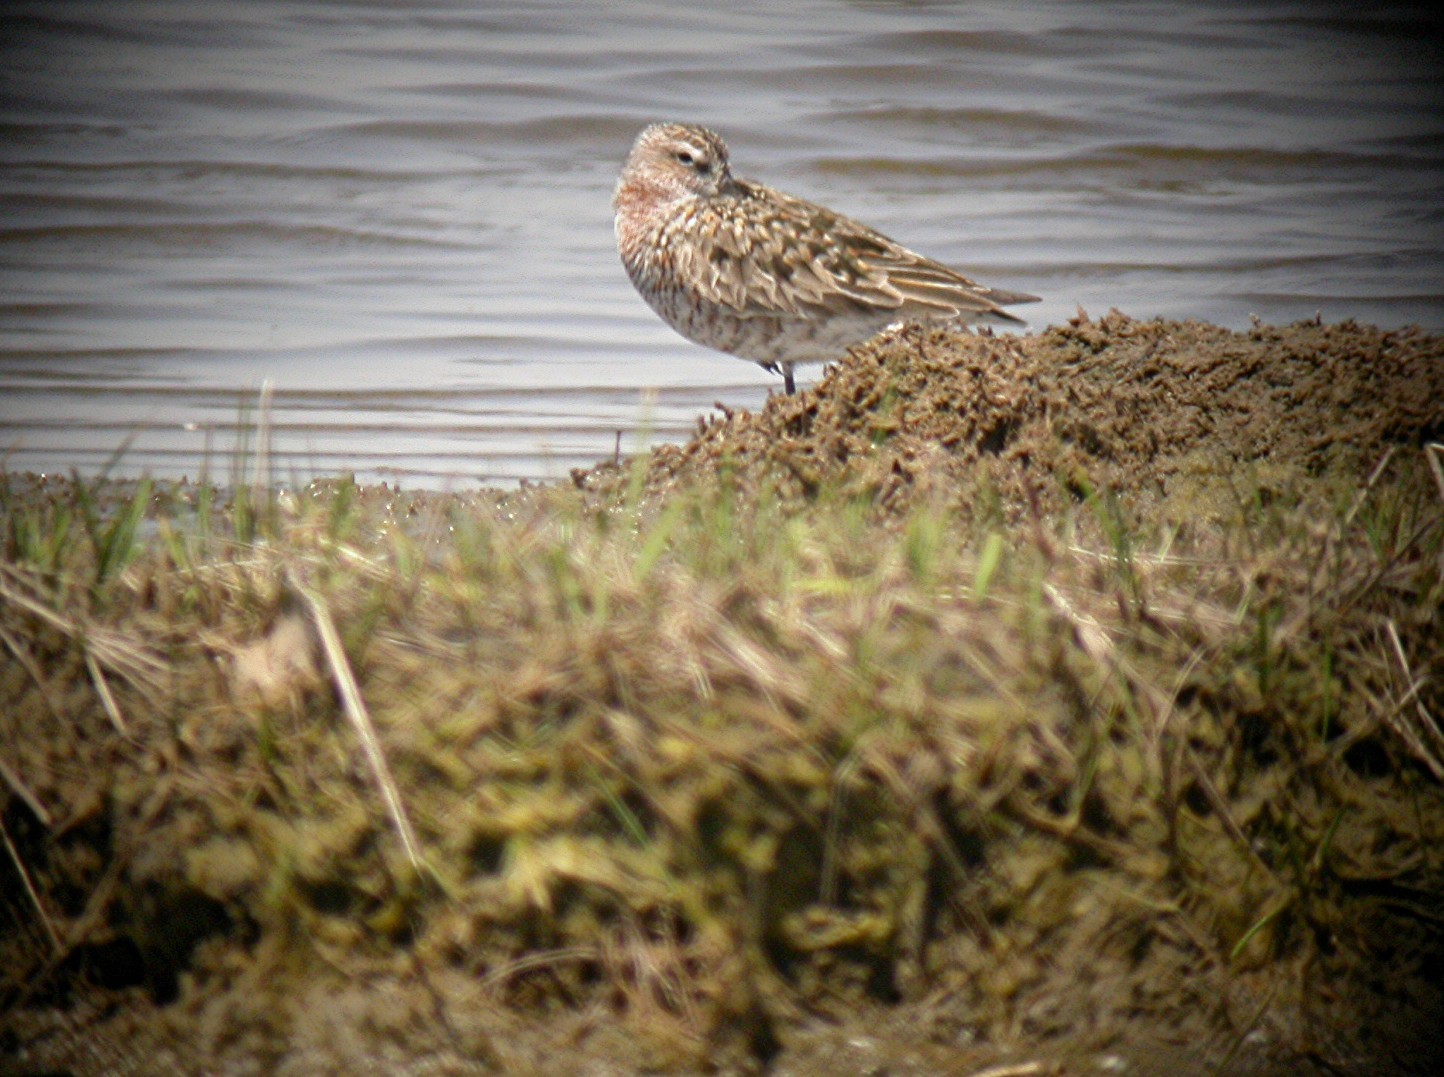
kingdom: Animalia
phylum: Chordata
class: Aves
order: Charadriiformes
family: Scolopacidae
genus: Calidris
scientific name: Calidris ferruginea
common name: Curlew sandpiper
